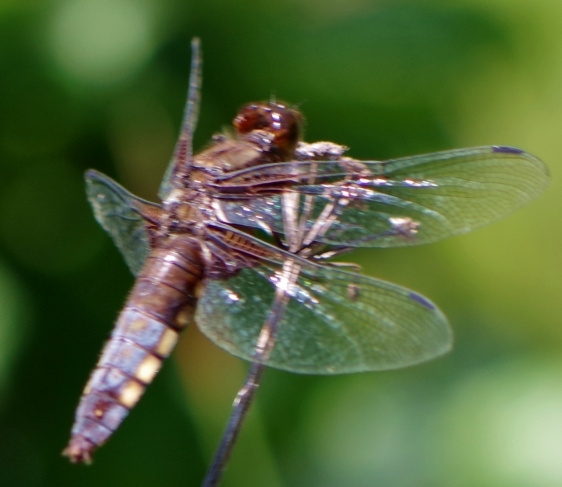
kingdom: Animalia
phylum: Arthropoda
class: Insecta
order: Odonata
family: Libellulidae
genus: Libellula
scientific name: Libellula depressa
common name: Broad-bodied chaser
